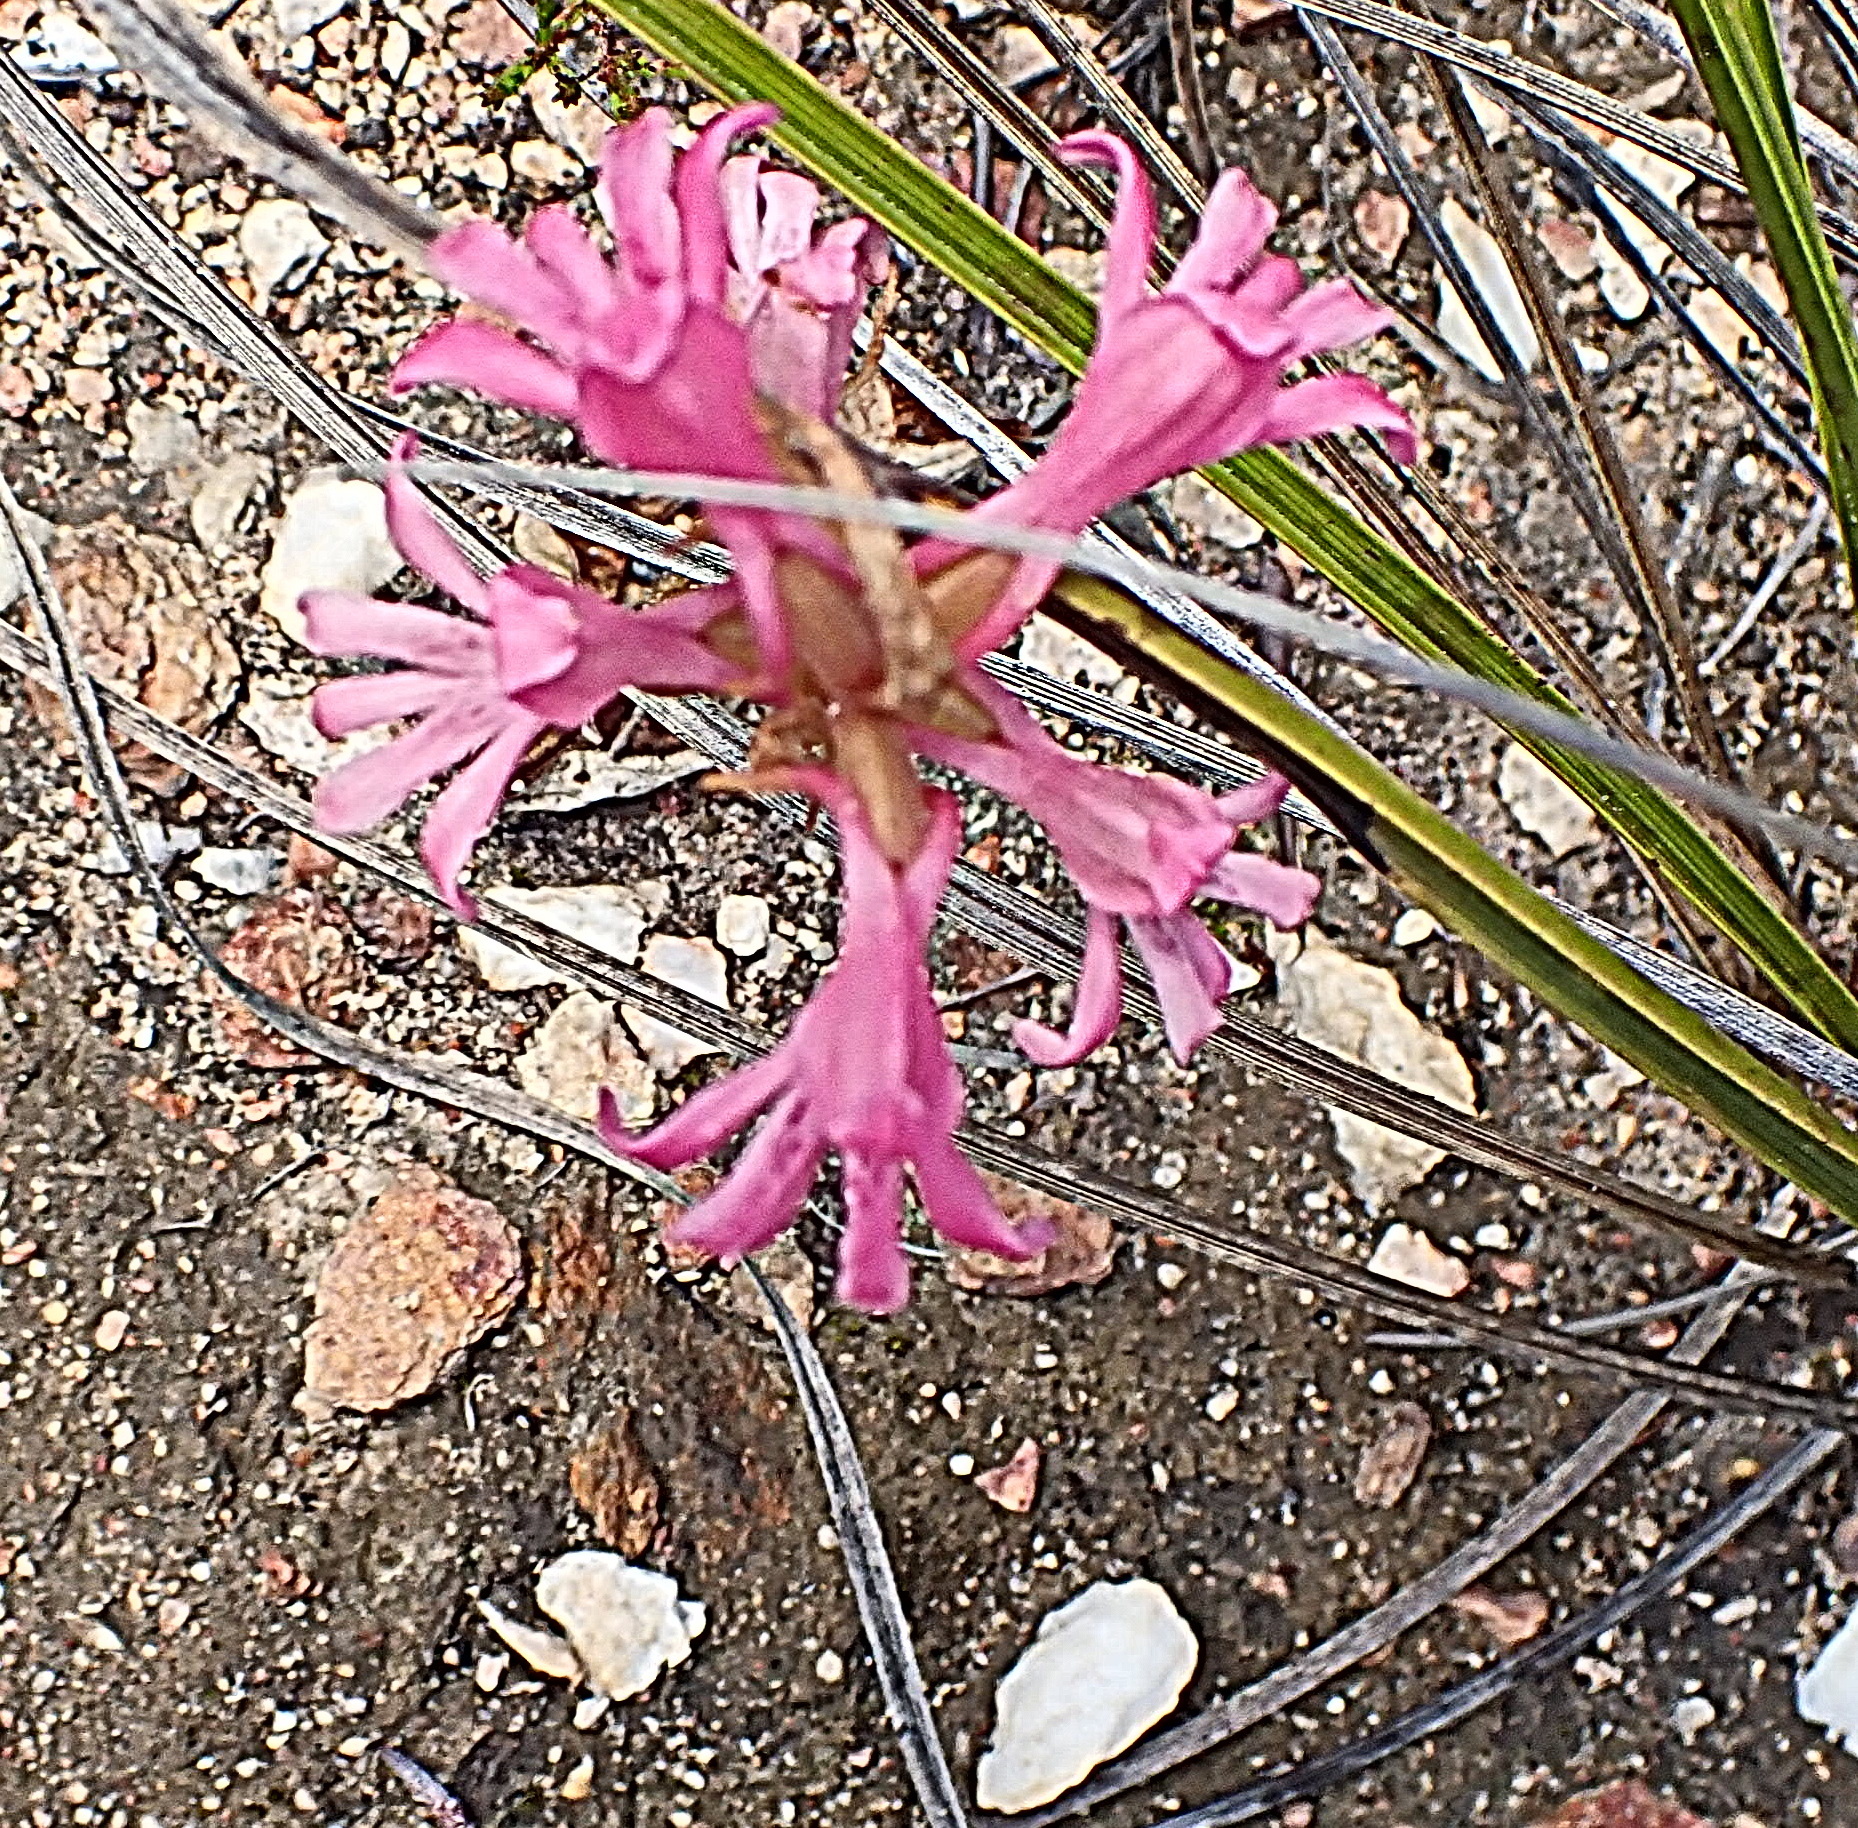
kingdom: Plantae
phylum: Tracheophyta
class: Liliopsida
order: Asparagales
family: Orchidaceae
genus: Satyrium
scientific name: Satyrium erectum
